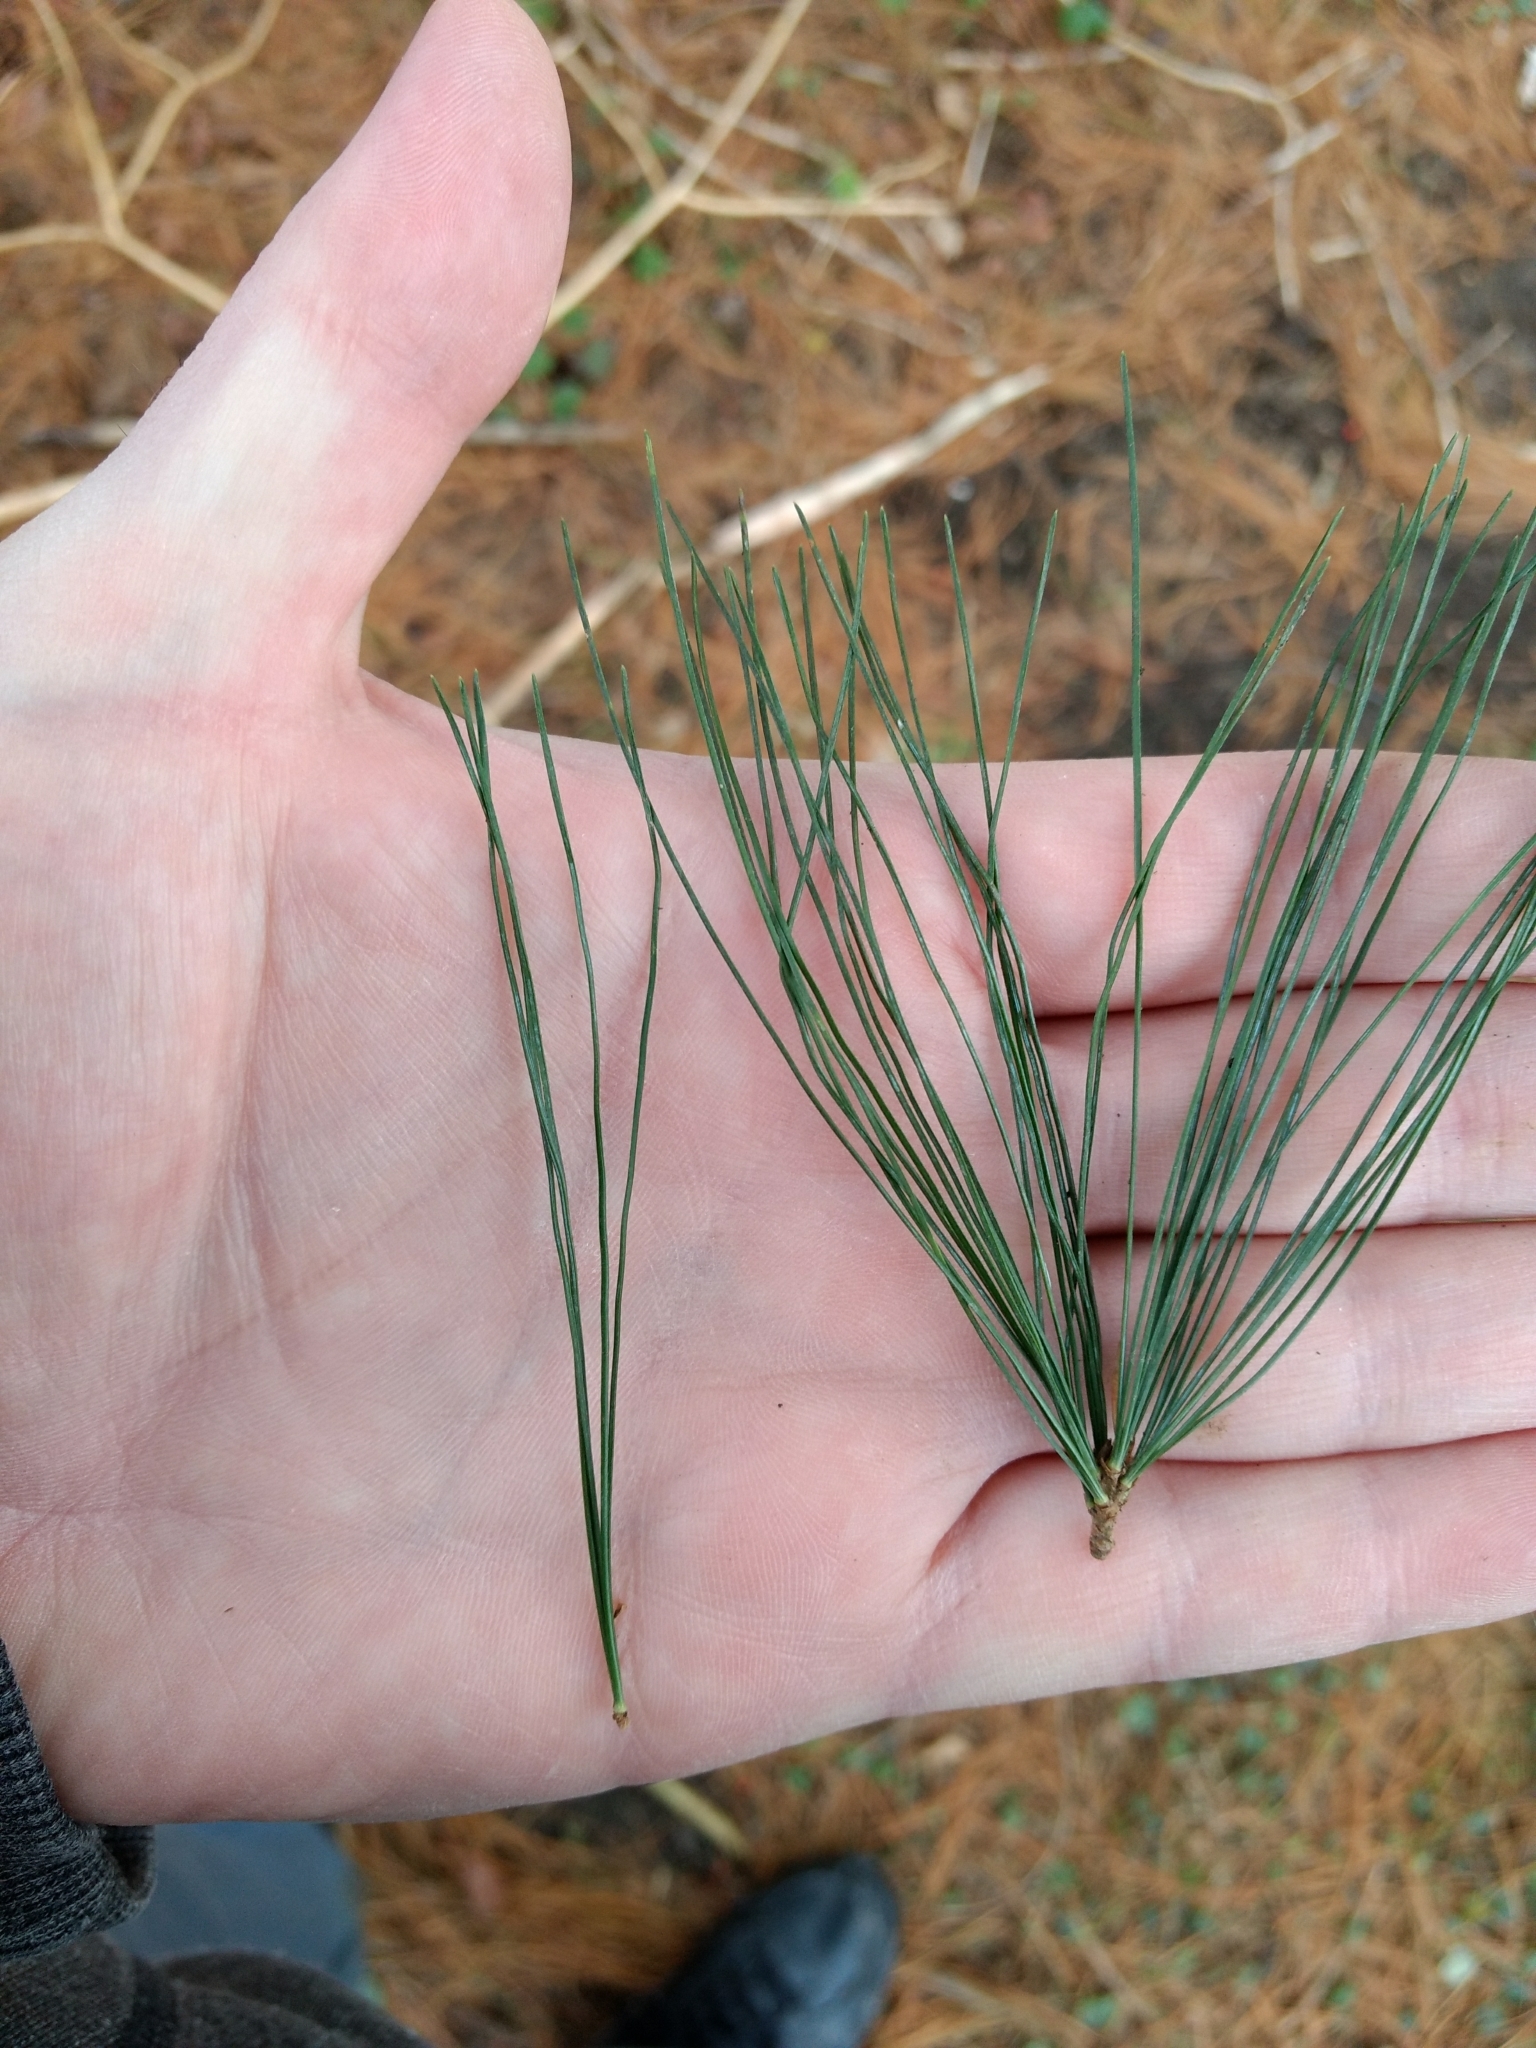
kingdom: Plantae
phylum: Tracheophyta
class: Pinopsida
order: Pinales
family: Pinaceae
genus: Pinus
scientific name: Pinus strobus
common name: Weymouth pine
